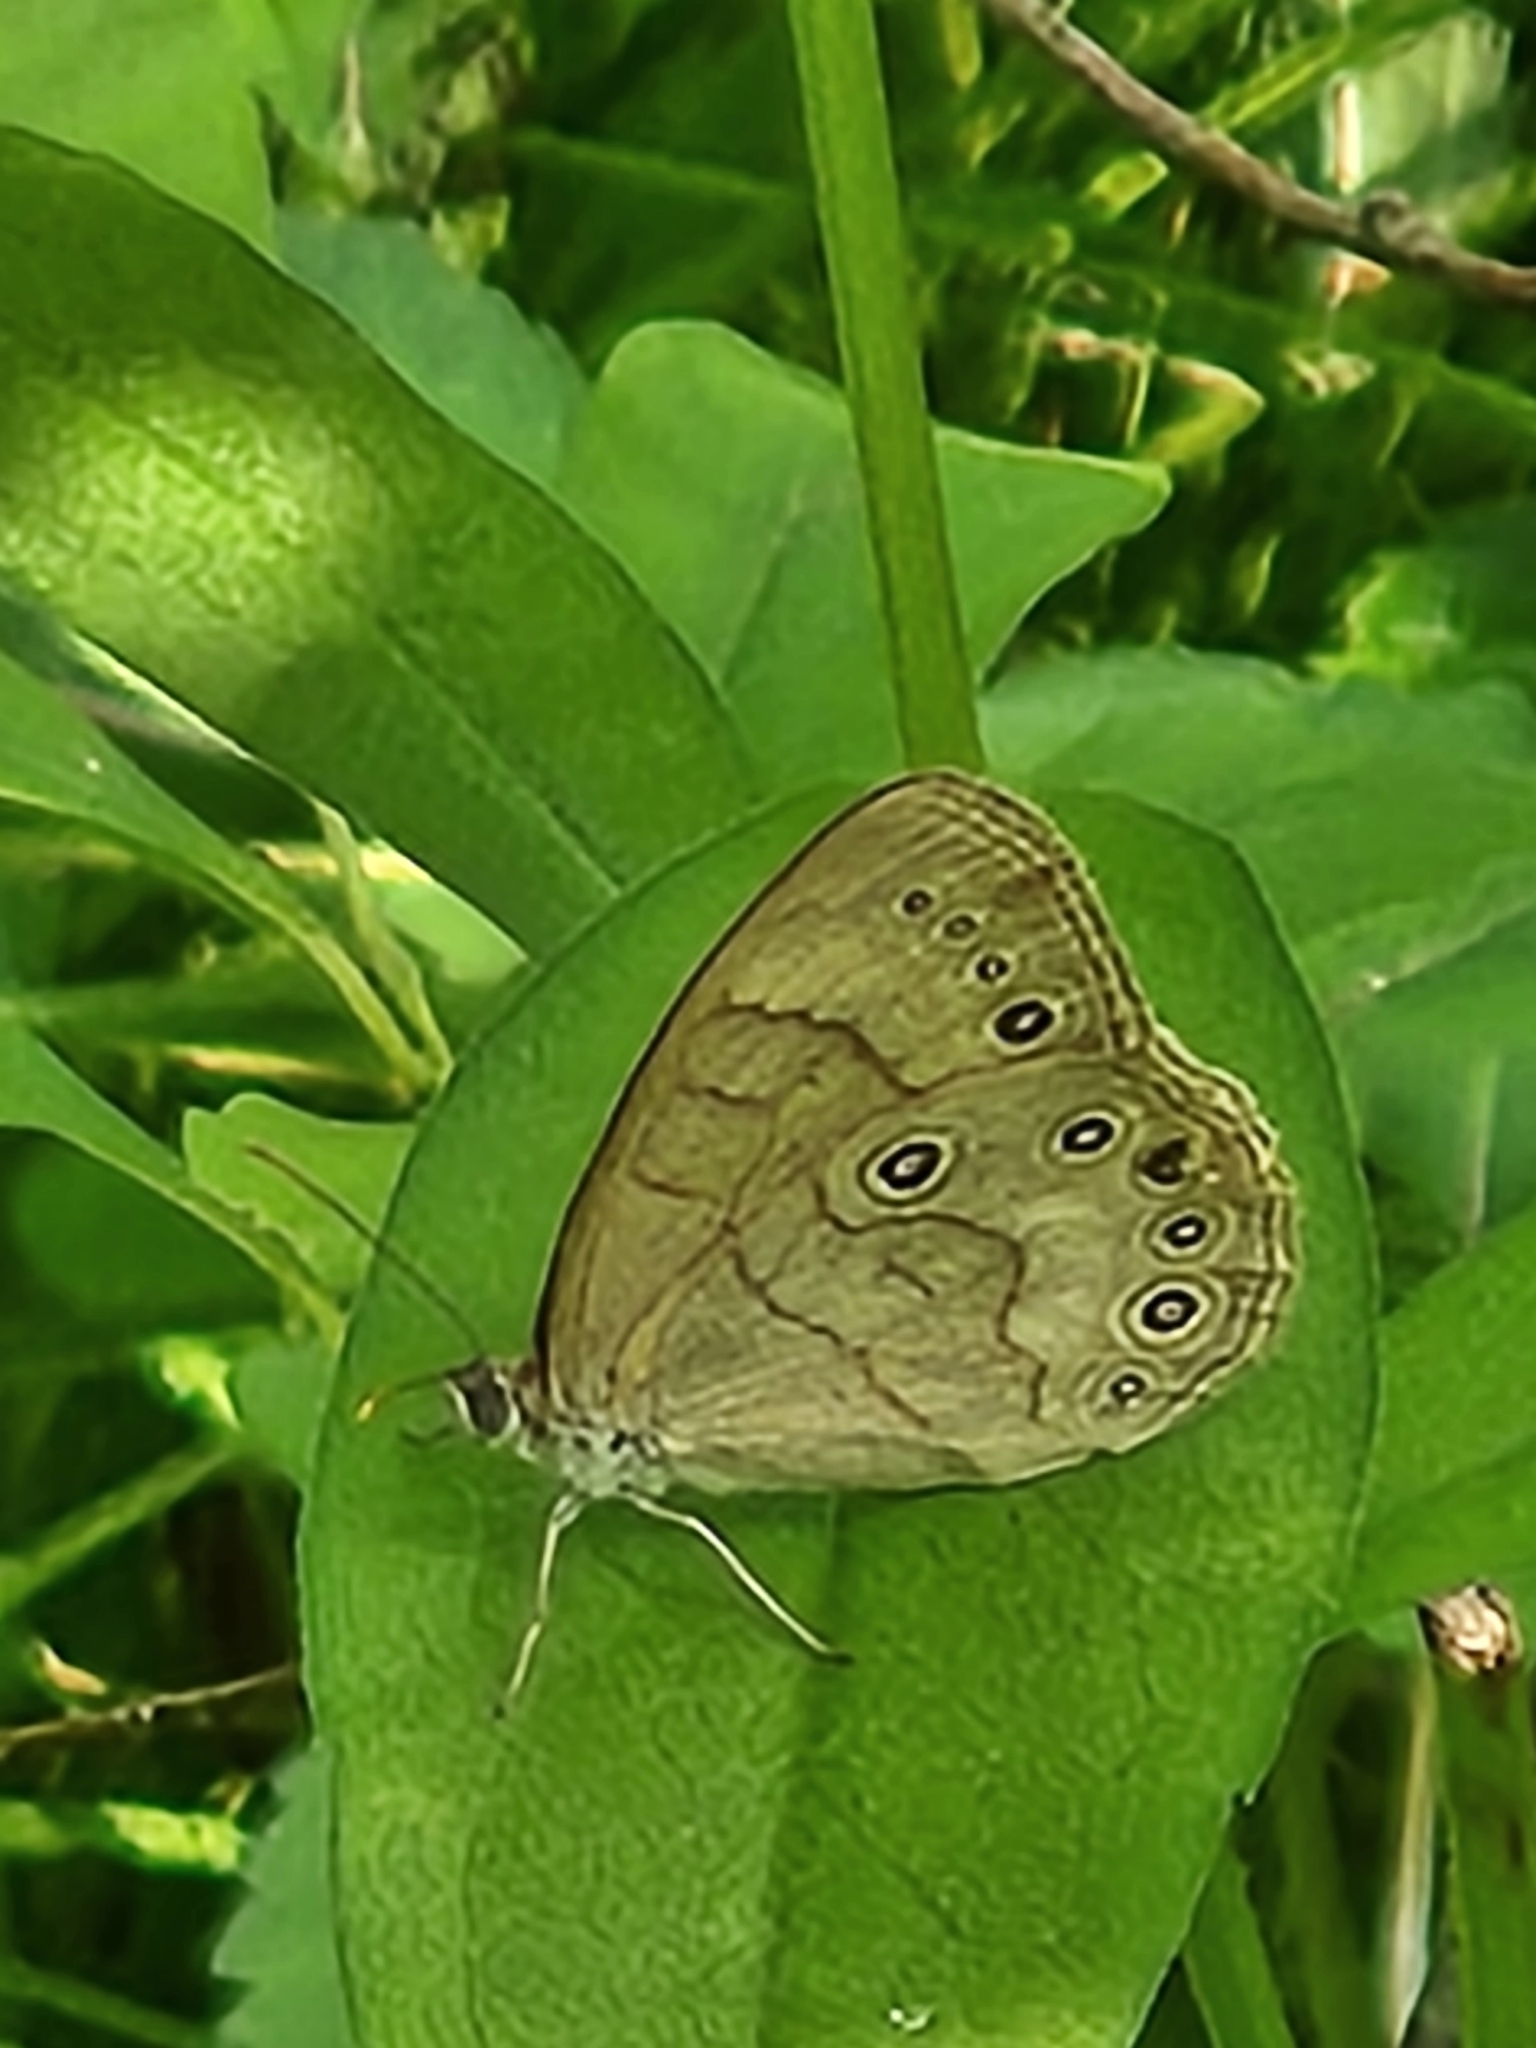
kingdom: Animalia
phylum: Arthropoda
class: Insecta
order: Lepidoptera
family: Nymphalidae
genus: Lethe
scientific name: Lethe eurydice
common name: Eyed brown
